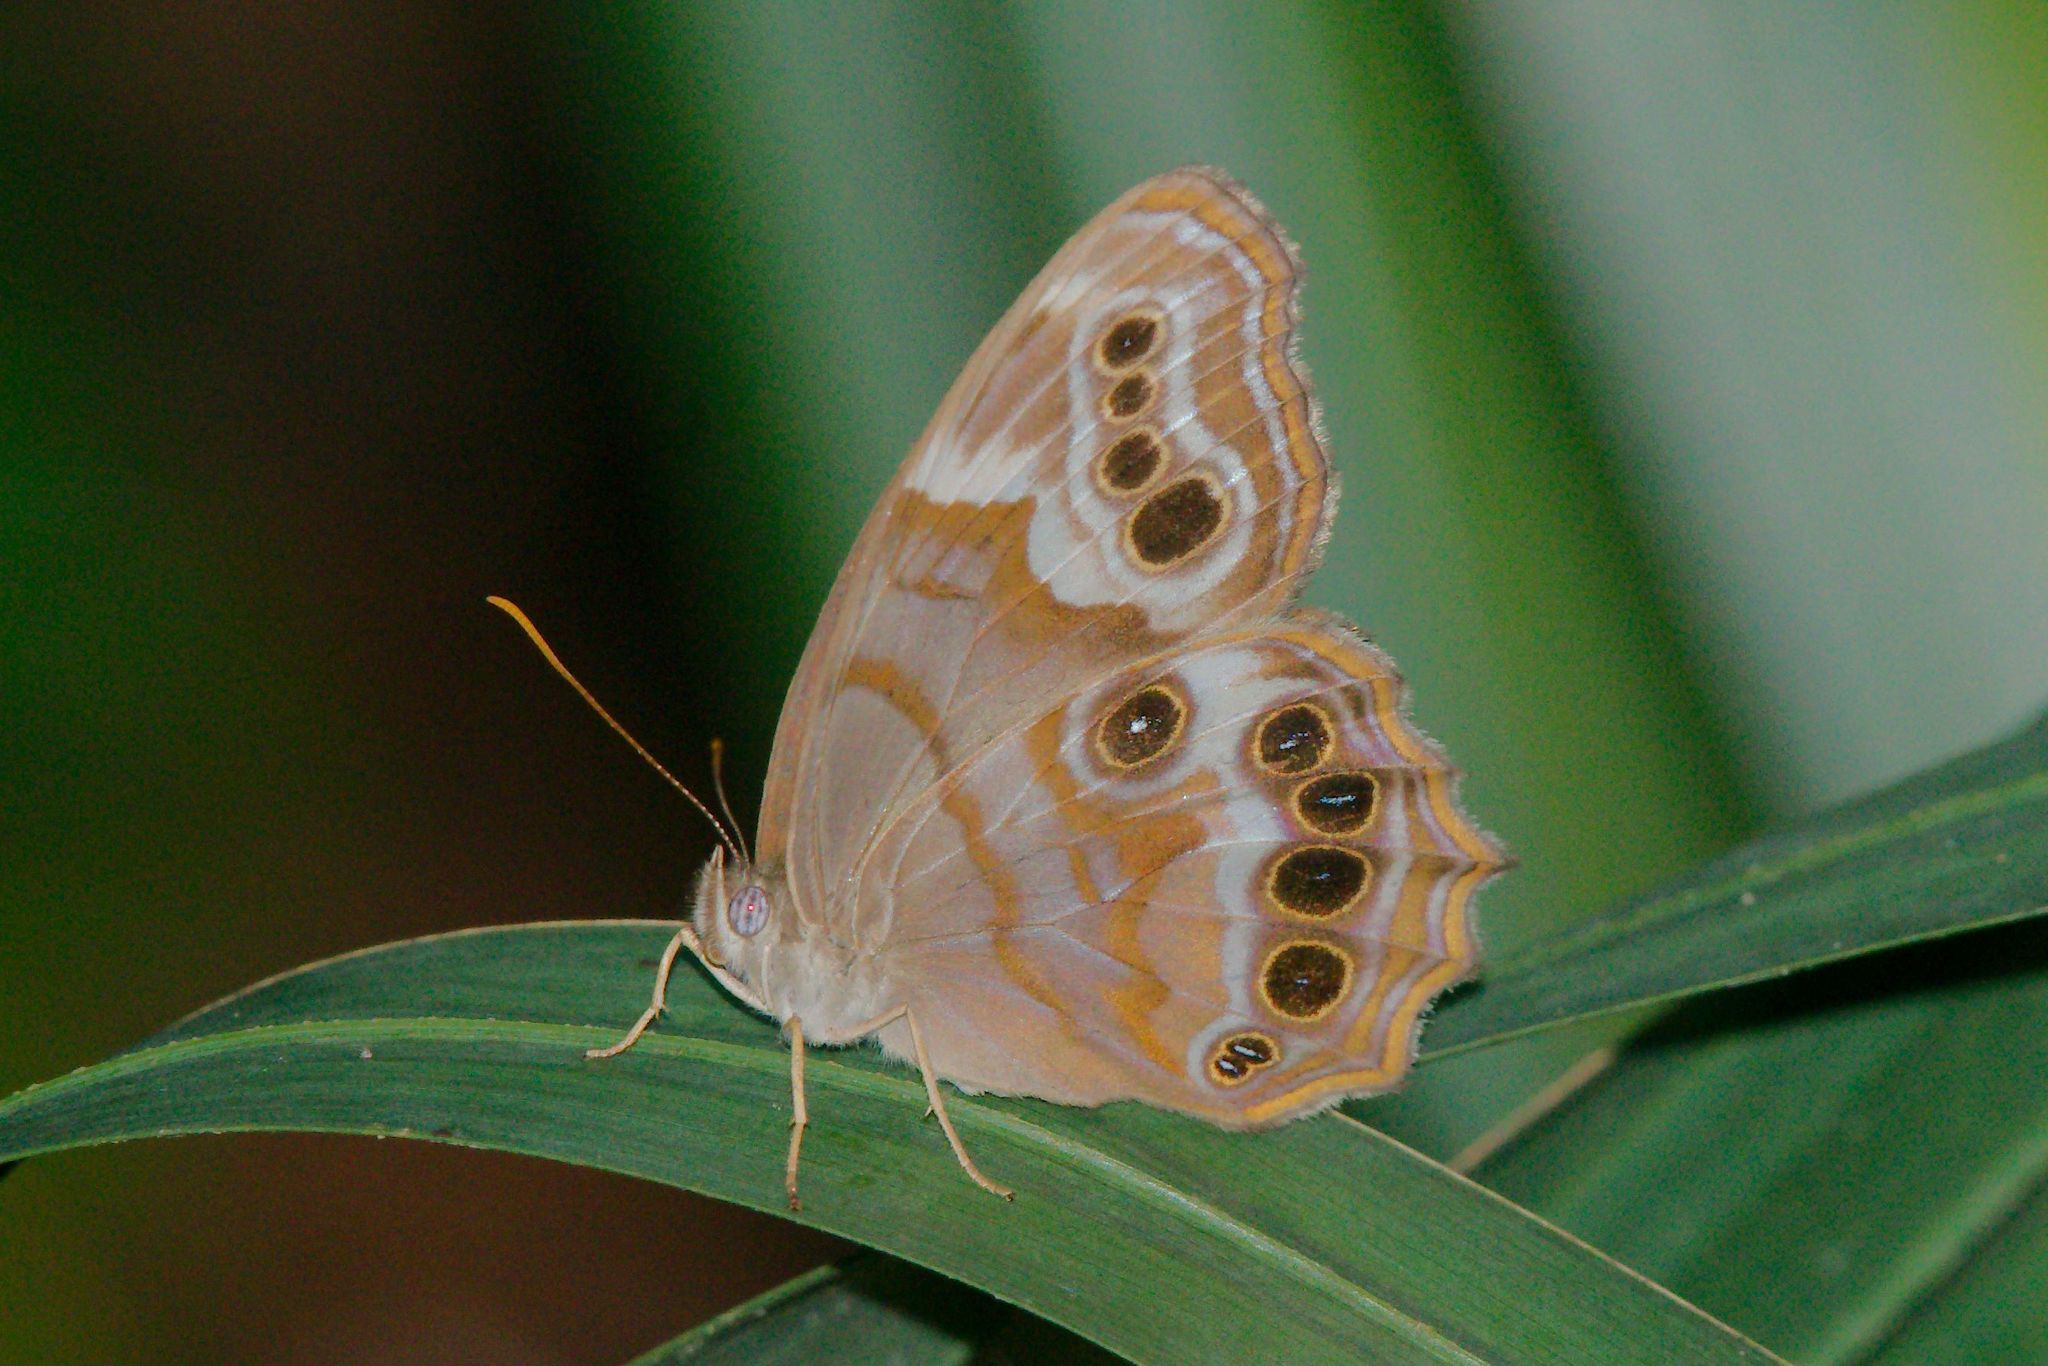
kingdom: Animalia
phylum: Arthropoda
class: Insecta
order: Lepidoptera
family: Nymphalidae
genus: Enodia
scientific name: Enodia portlandia
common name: Southern pearly-eye
